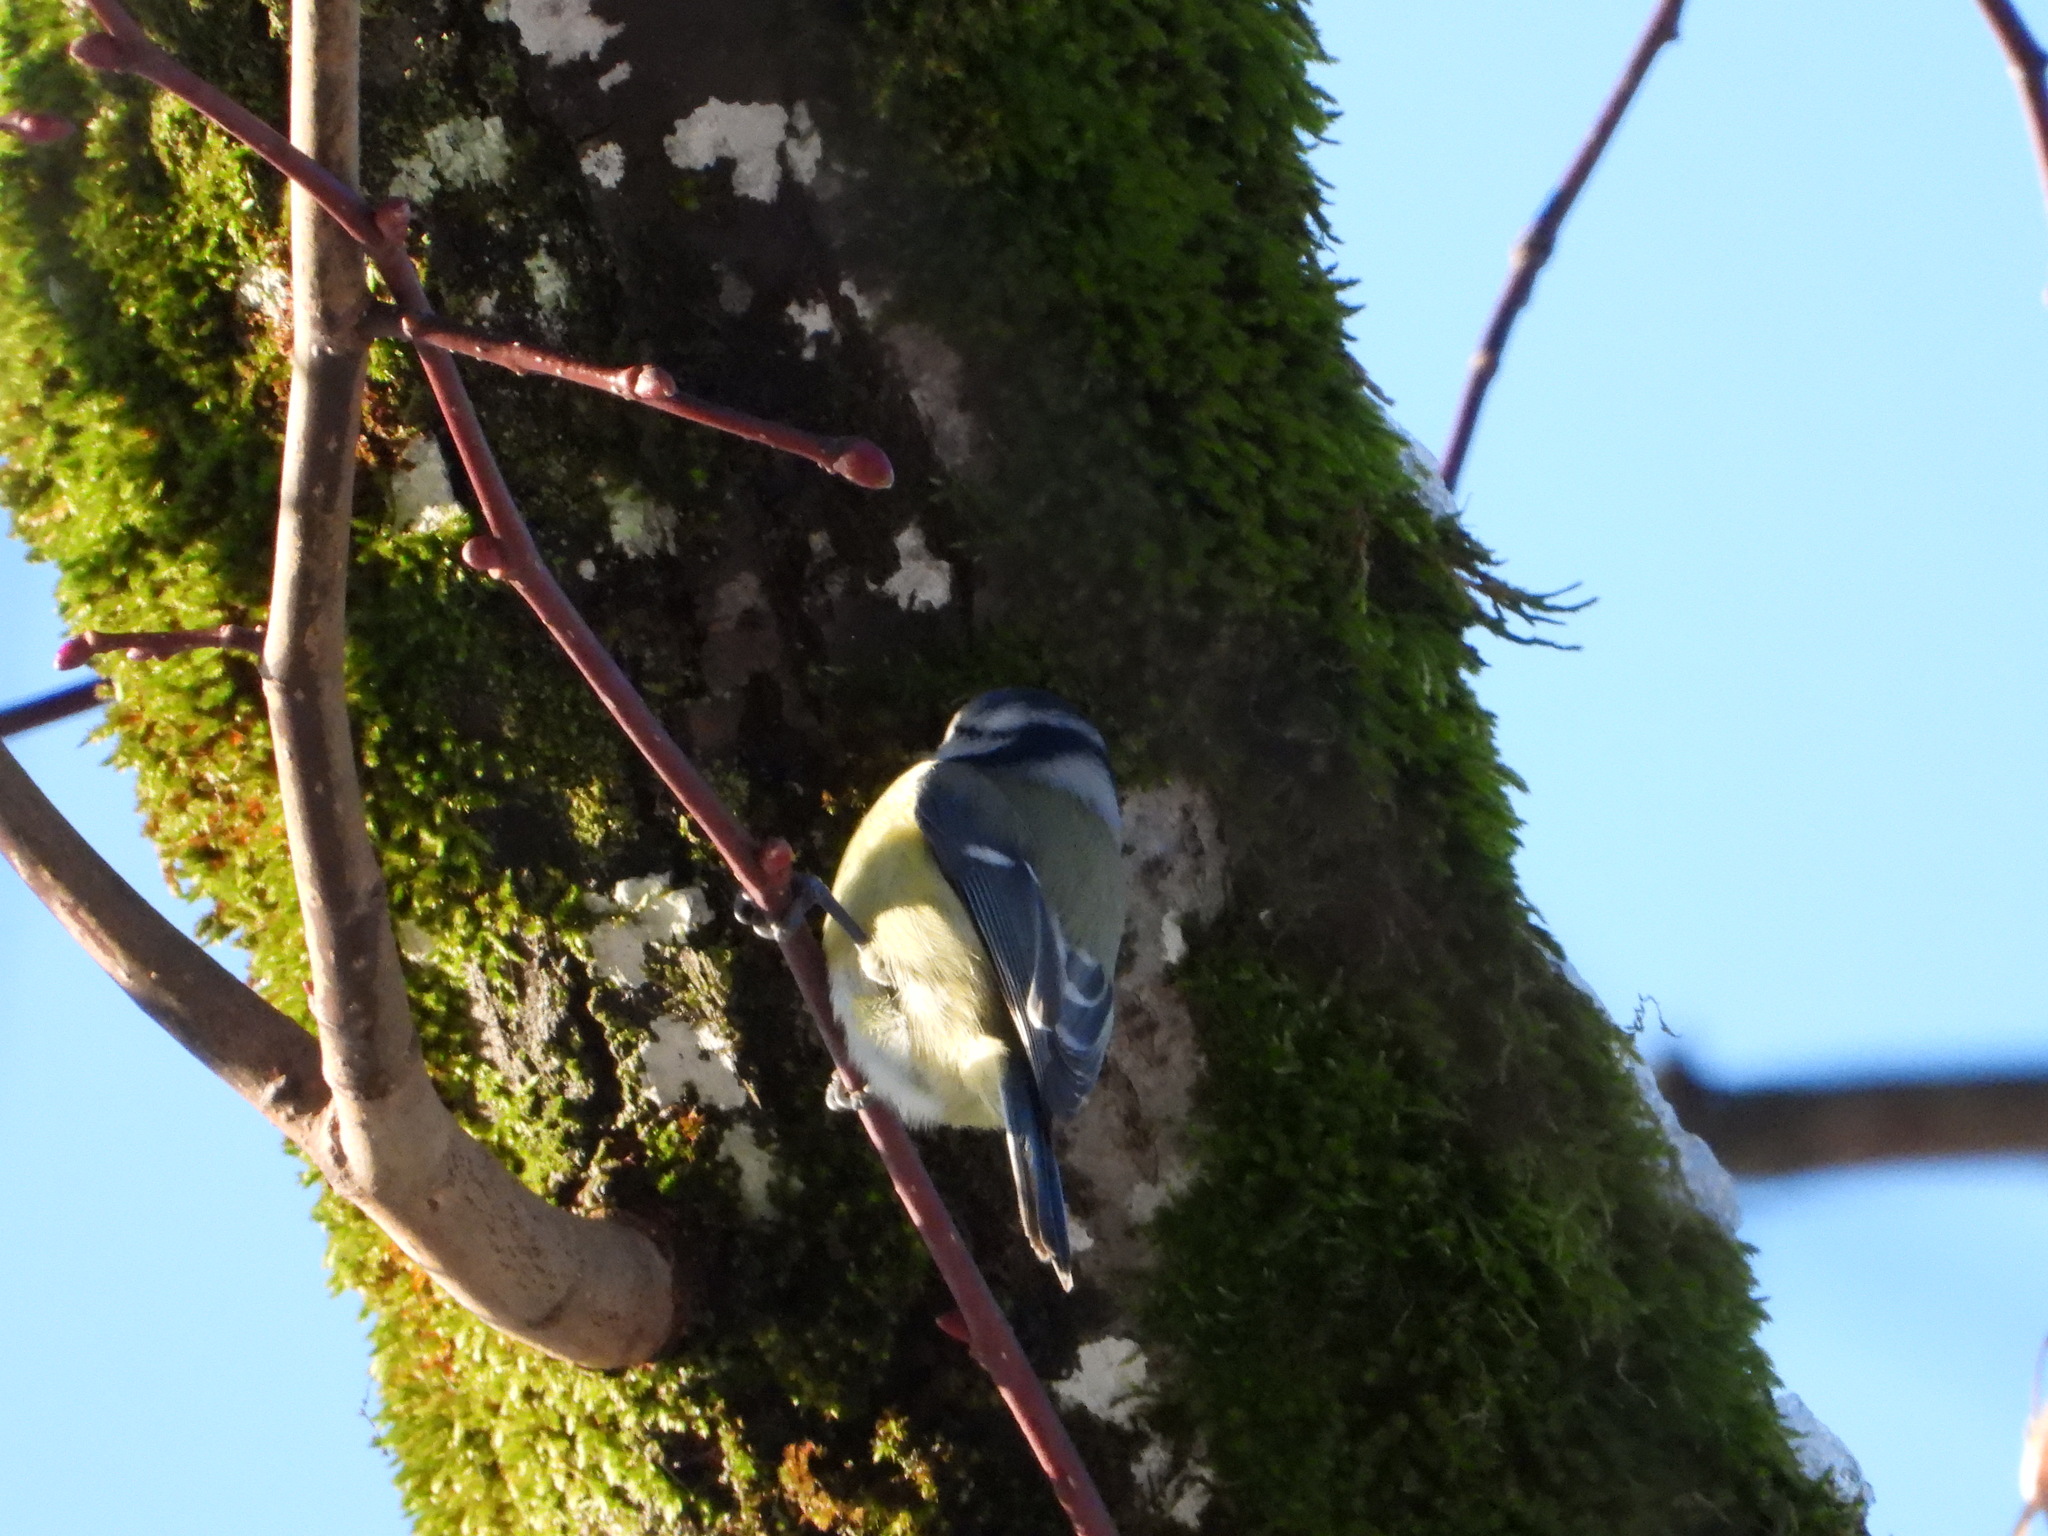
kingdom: Animalia
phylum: Chordata
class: Aves
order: Passeriformes
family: Paridae
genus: Cyanistes
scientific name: Cyanistes caeruleus
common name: Eurasian blue tit
